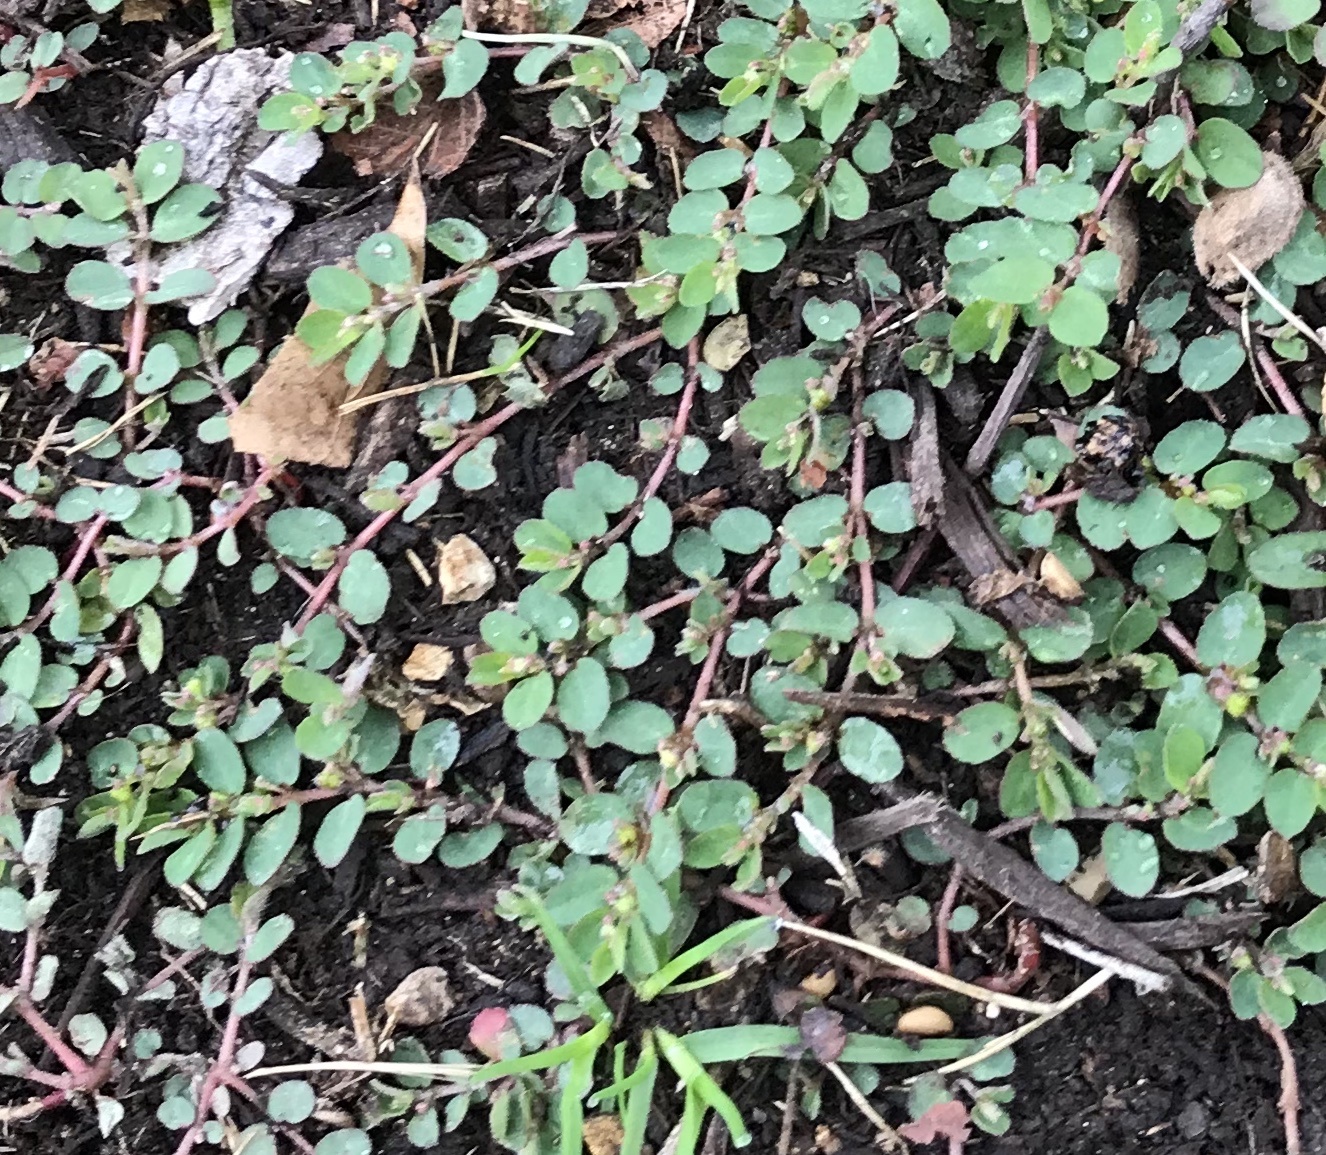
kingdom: Plantae
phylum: Tracheophyta
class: Magnoliopsida
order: Malpighiales
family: Euphorbiaceae
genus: Euphorbia
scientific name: Euphorbia prostrata
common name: Prostrate sandmat
